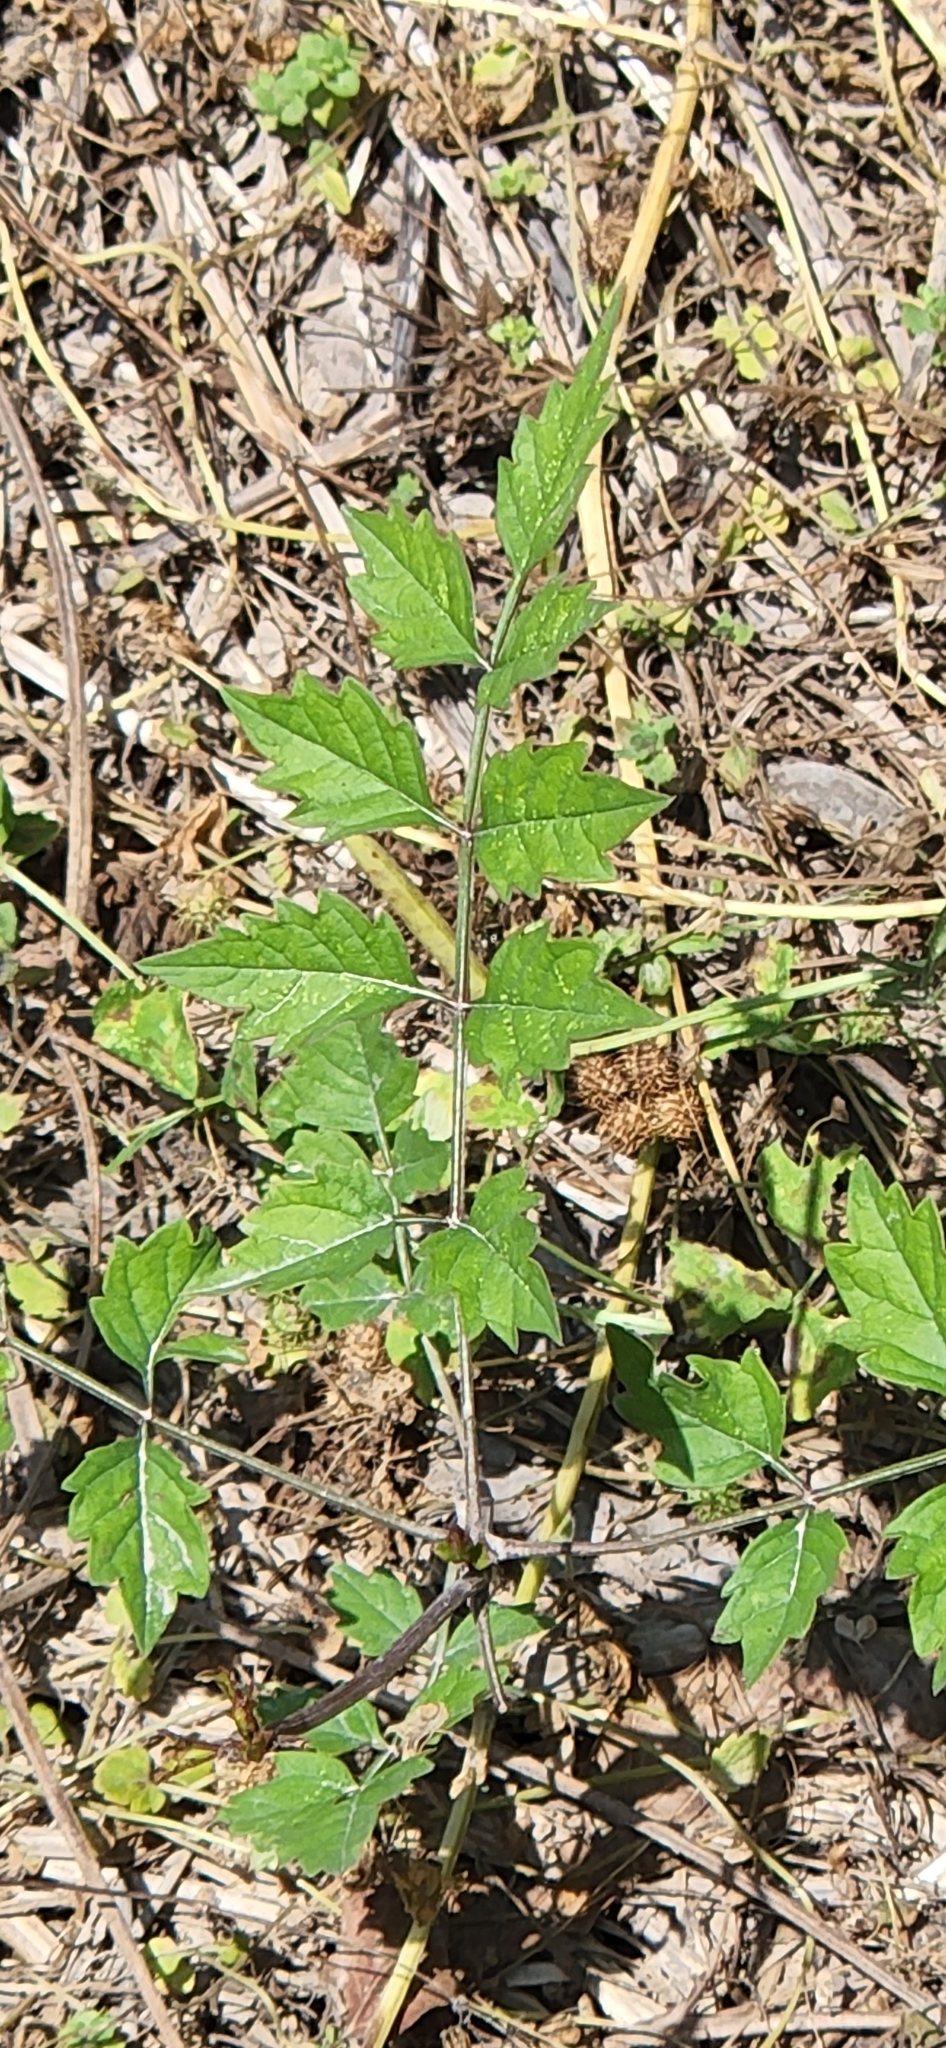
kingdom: Plantae
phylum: Tracheophyta
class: Magnoliopsida
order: Lamiales
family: Bignoniaceae
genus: Campsis
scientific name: Campsis radicans
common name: Trumpet-creeper
